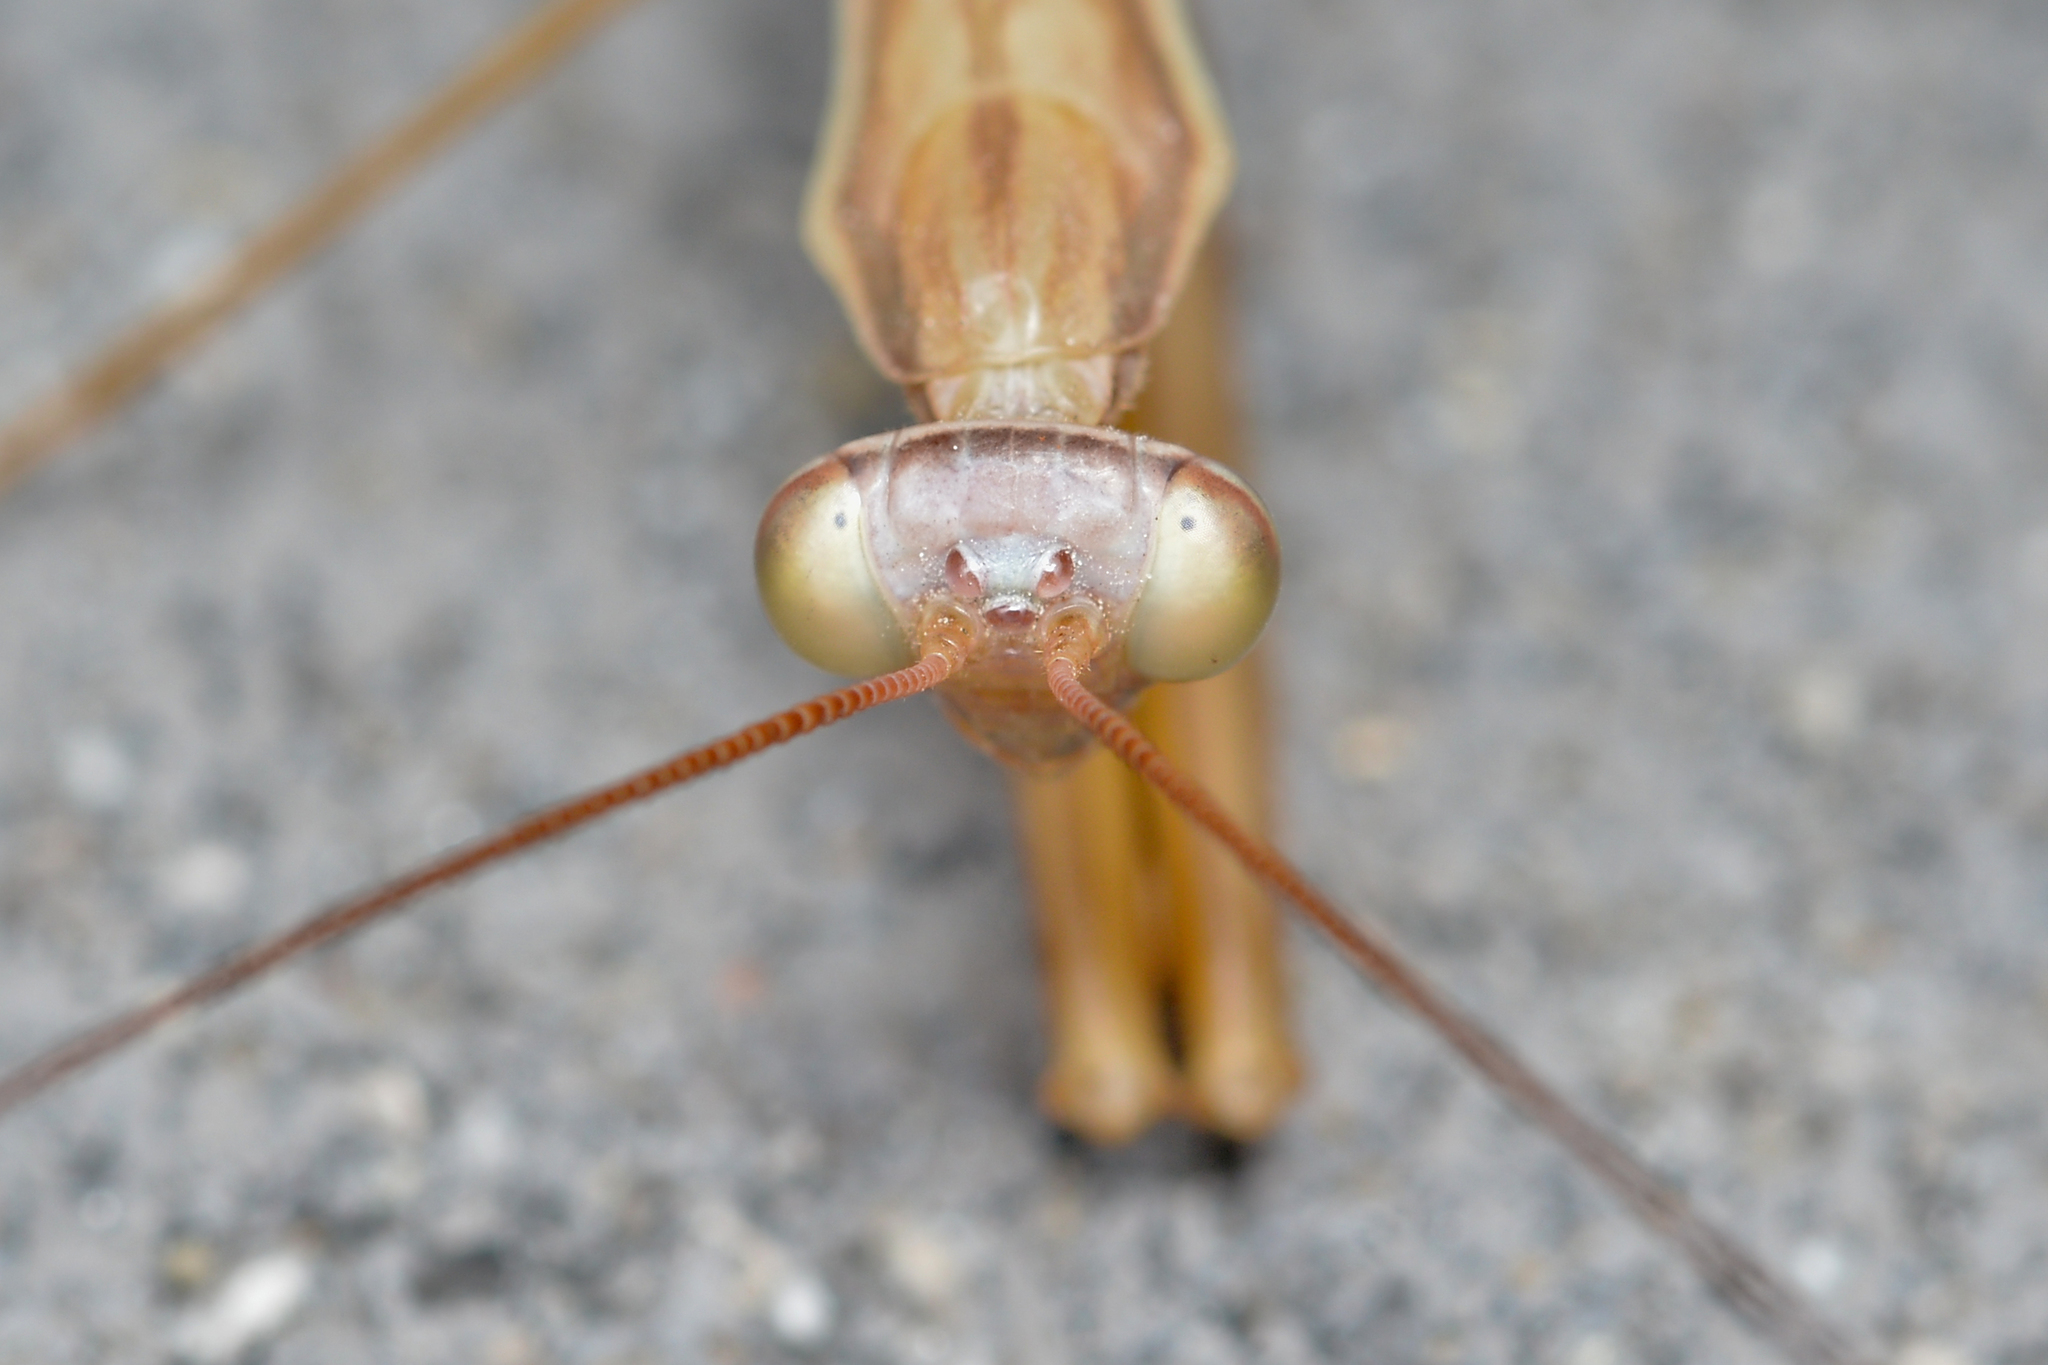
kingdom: Animalia
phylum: Arthropoda
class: Insecta
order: Mantodea
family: Mantidae
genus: Mantis
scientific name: Mantis religiosa
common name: Praying mantis
